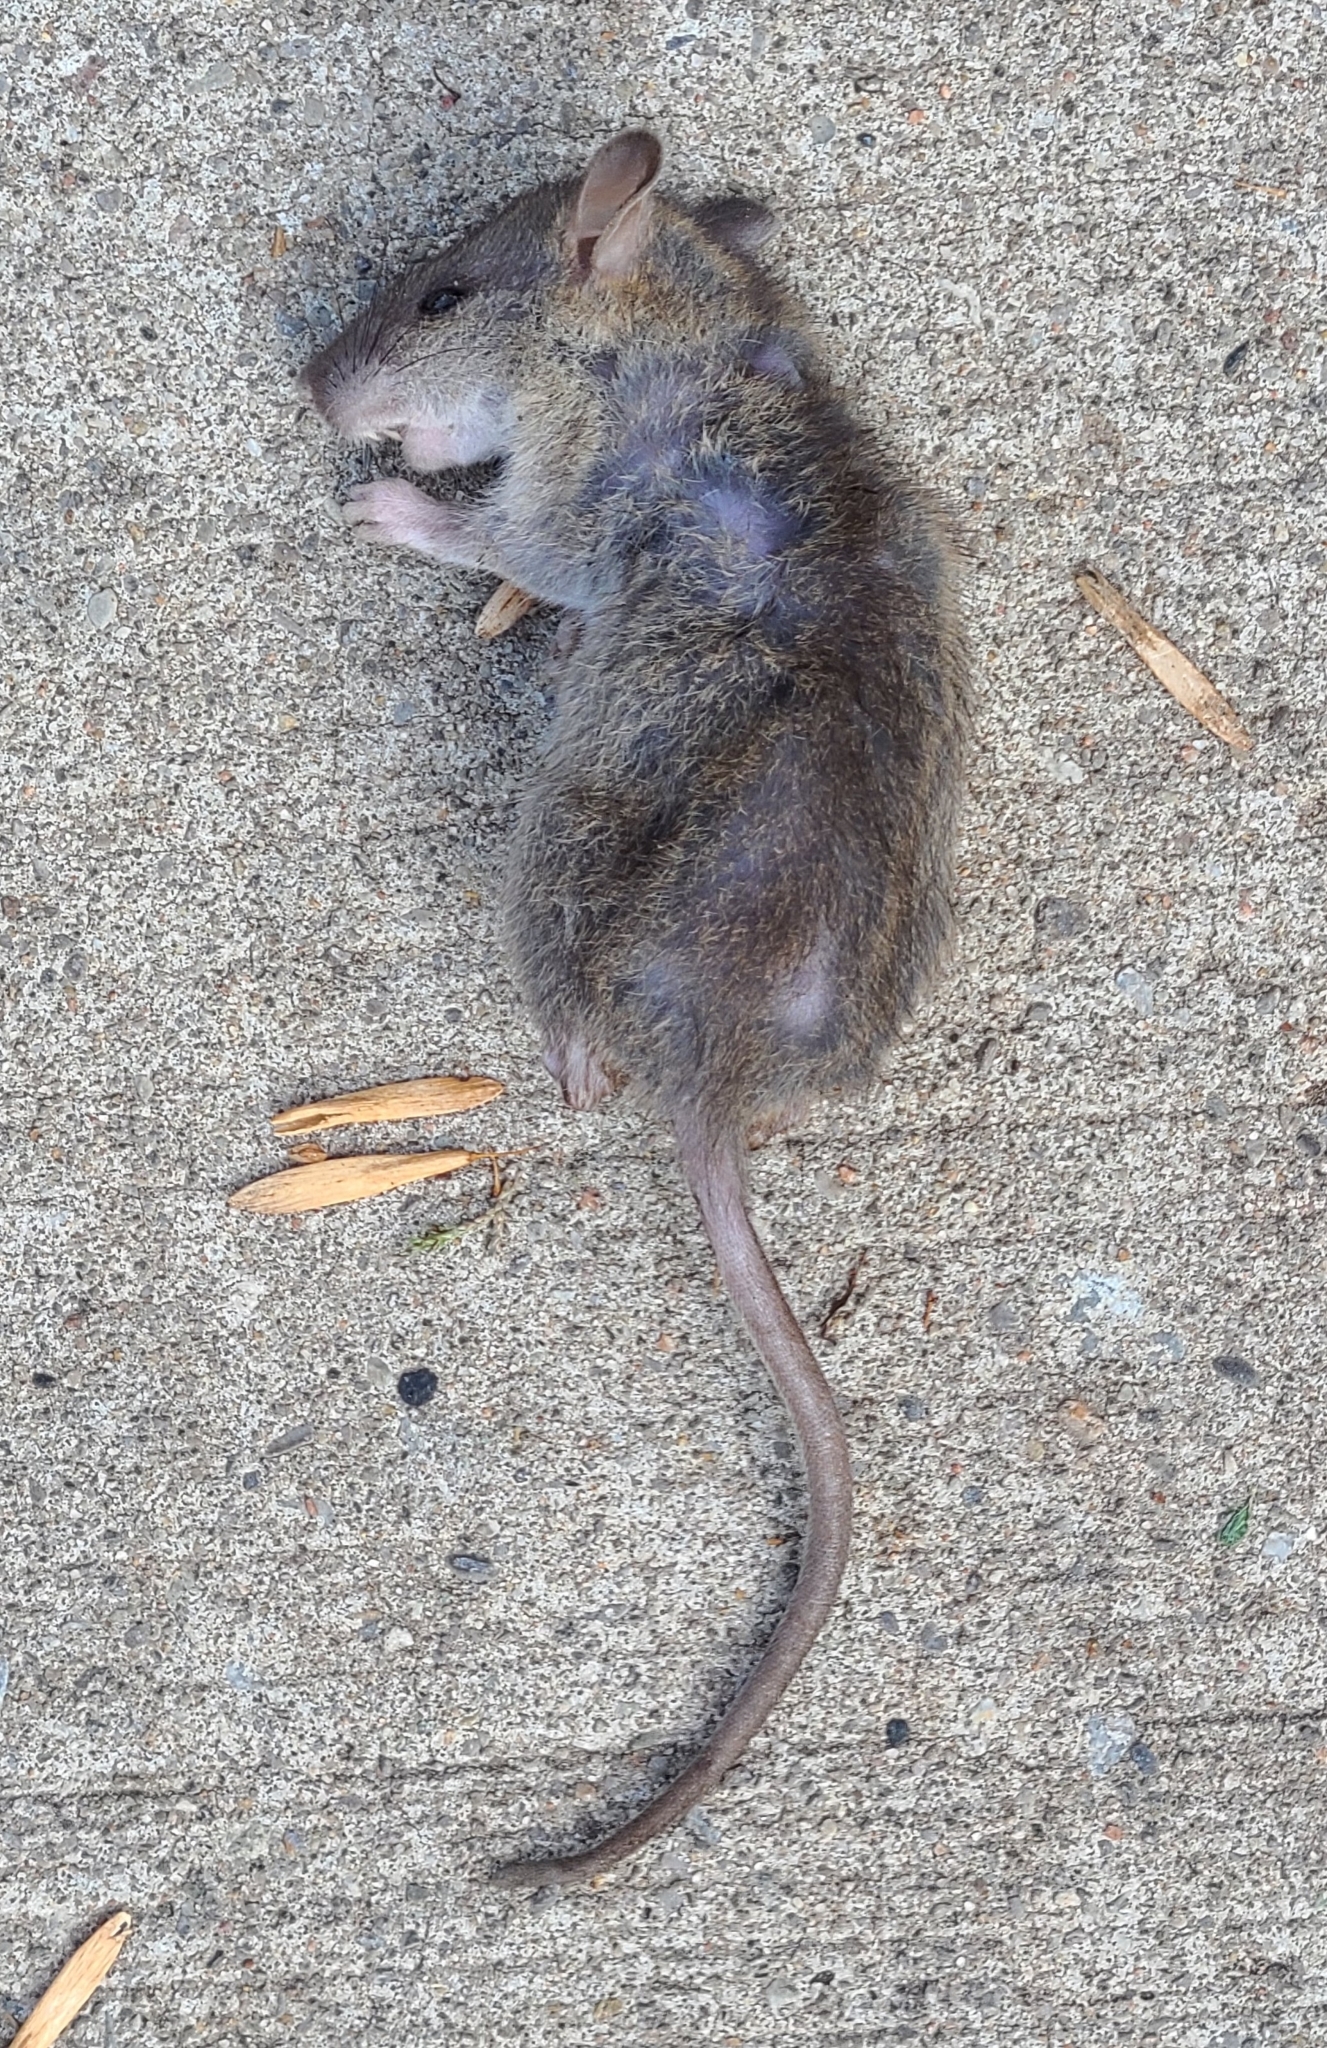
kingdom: Animalia
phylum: Chordata
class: Mammalia
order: Rodentia
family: Muridae
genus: Mus
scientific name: Mus musculus
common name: House mouse
